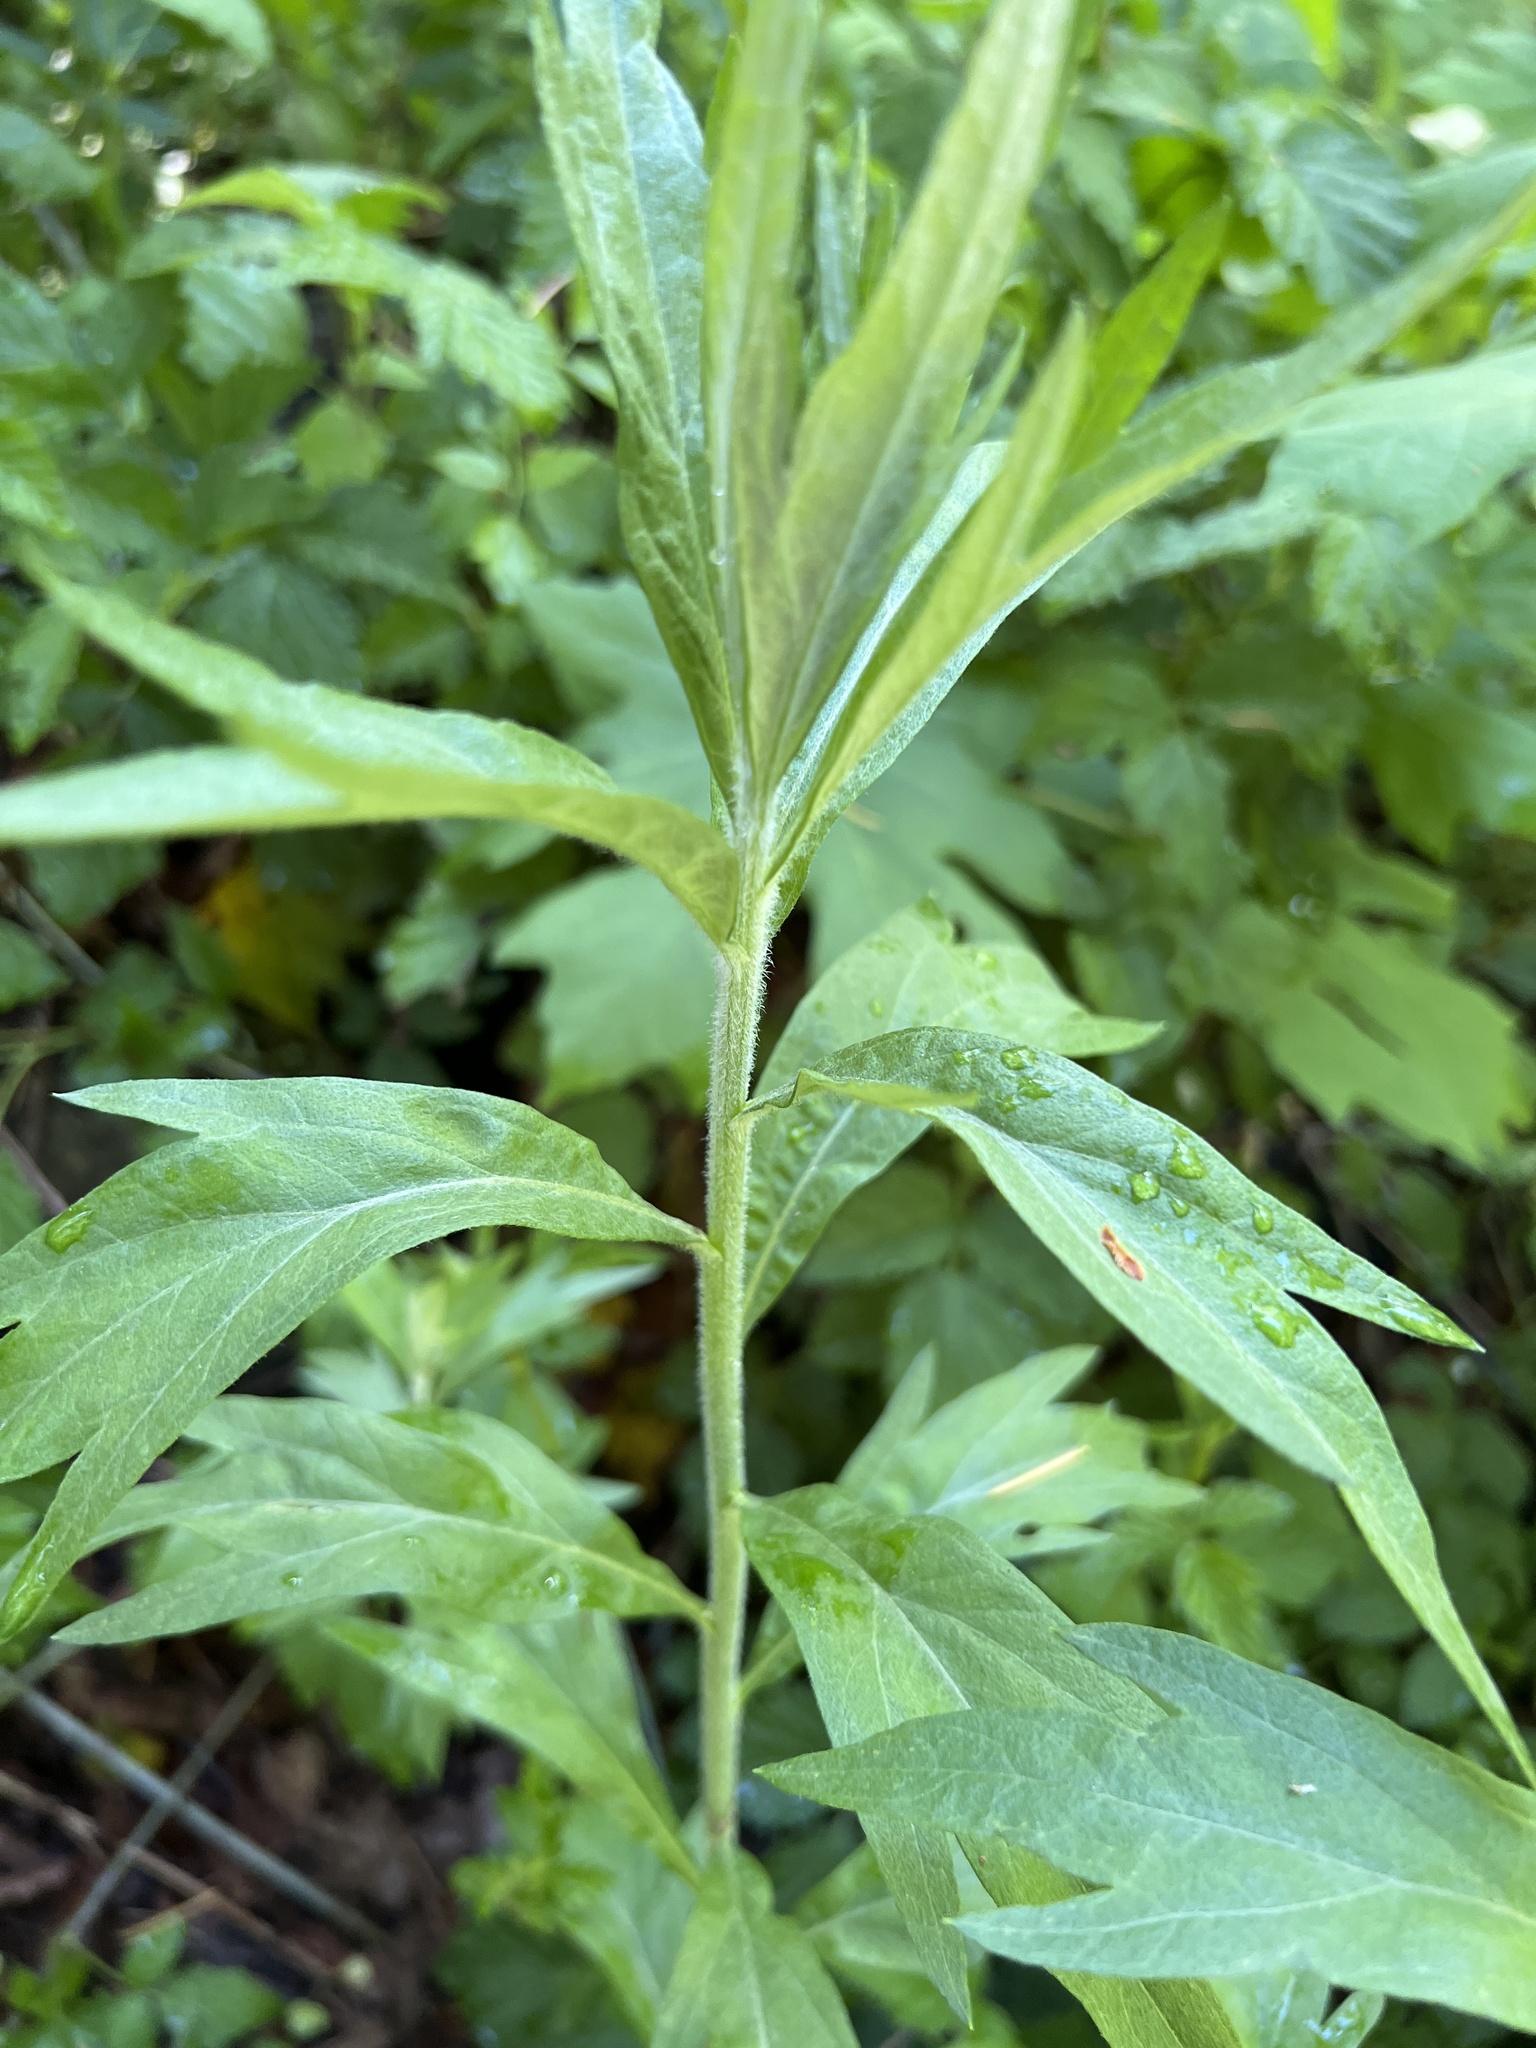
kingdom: Plantae
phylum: Tracheophyta
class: Magnoliopsida
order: Asterales
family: Asteraceae
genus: Artemisia
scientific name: Artemisia douglasiana
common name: Northwest mugwort
